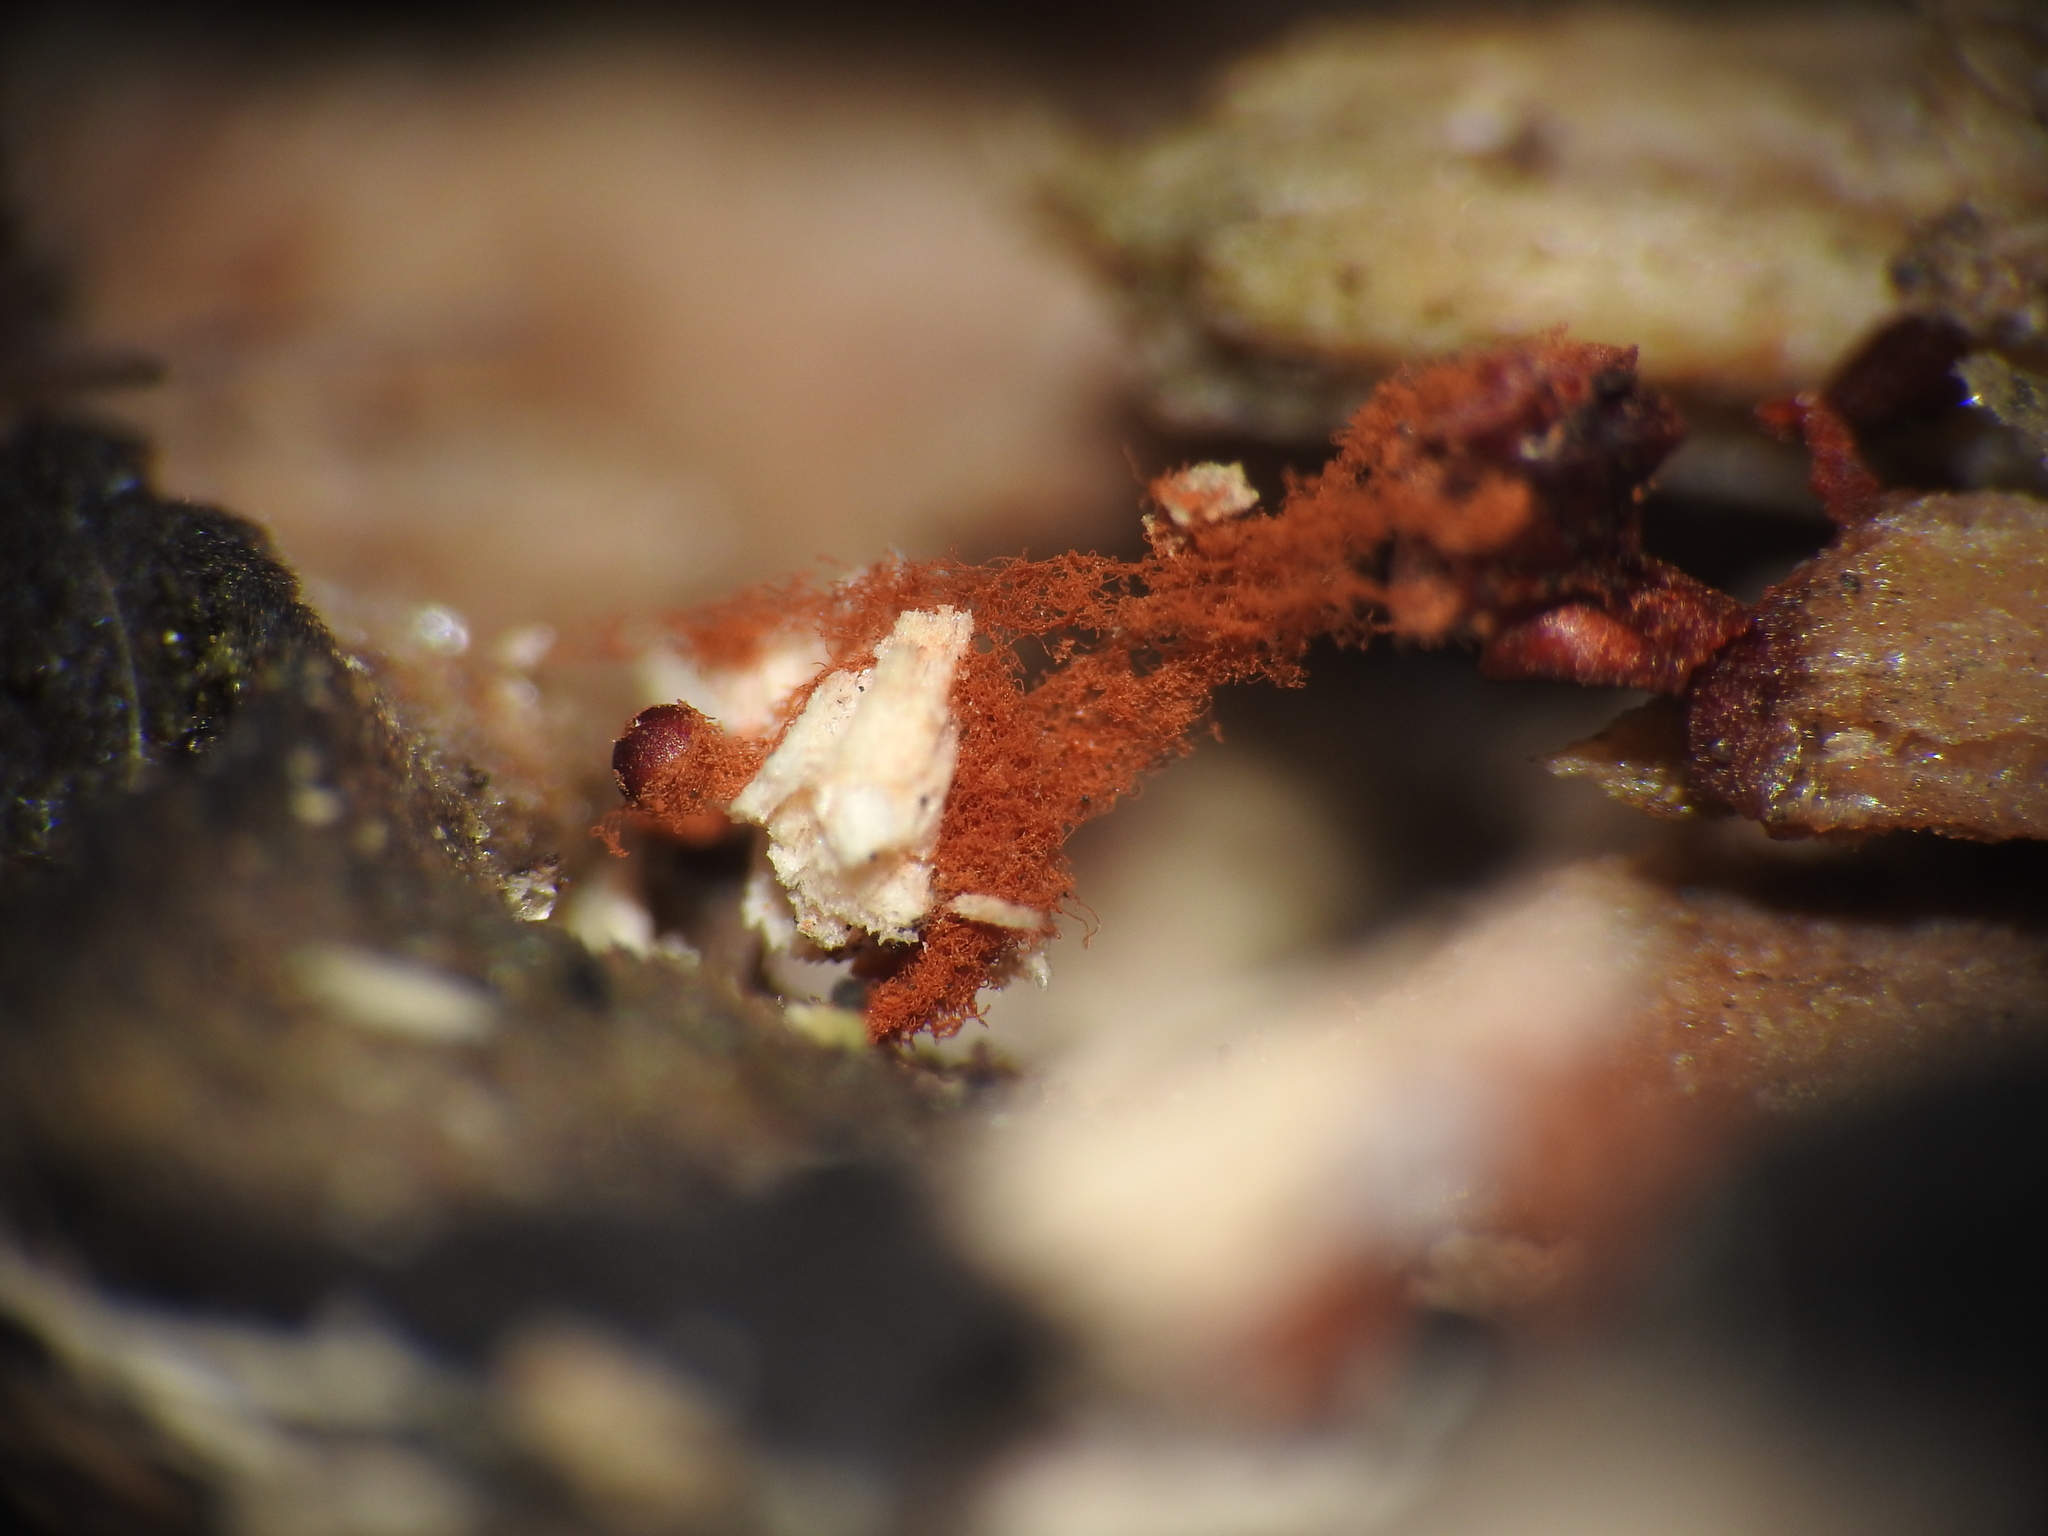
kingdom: Protozoa
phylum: Mycetozoa
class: Myxomycetes
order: Trichiales
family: Trichiaceae
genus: Metatrichia
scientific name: Metatrichia vesparia
